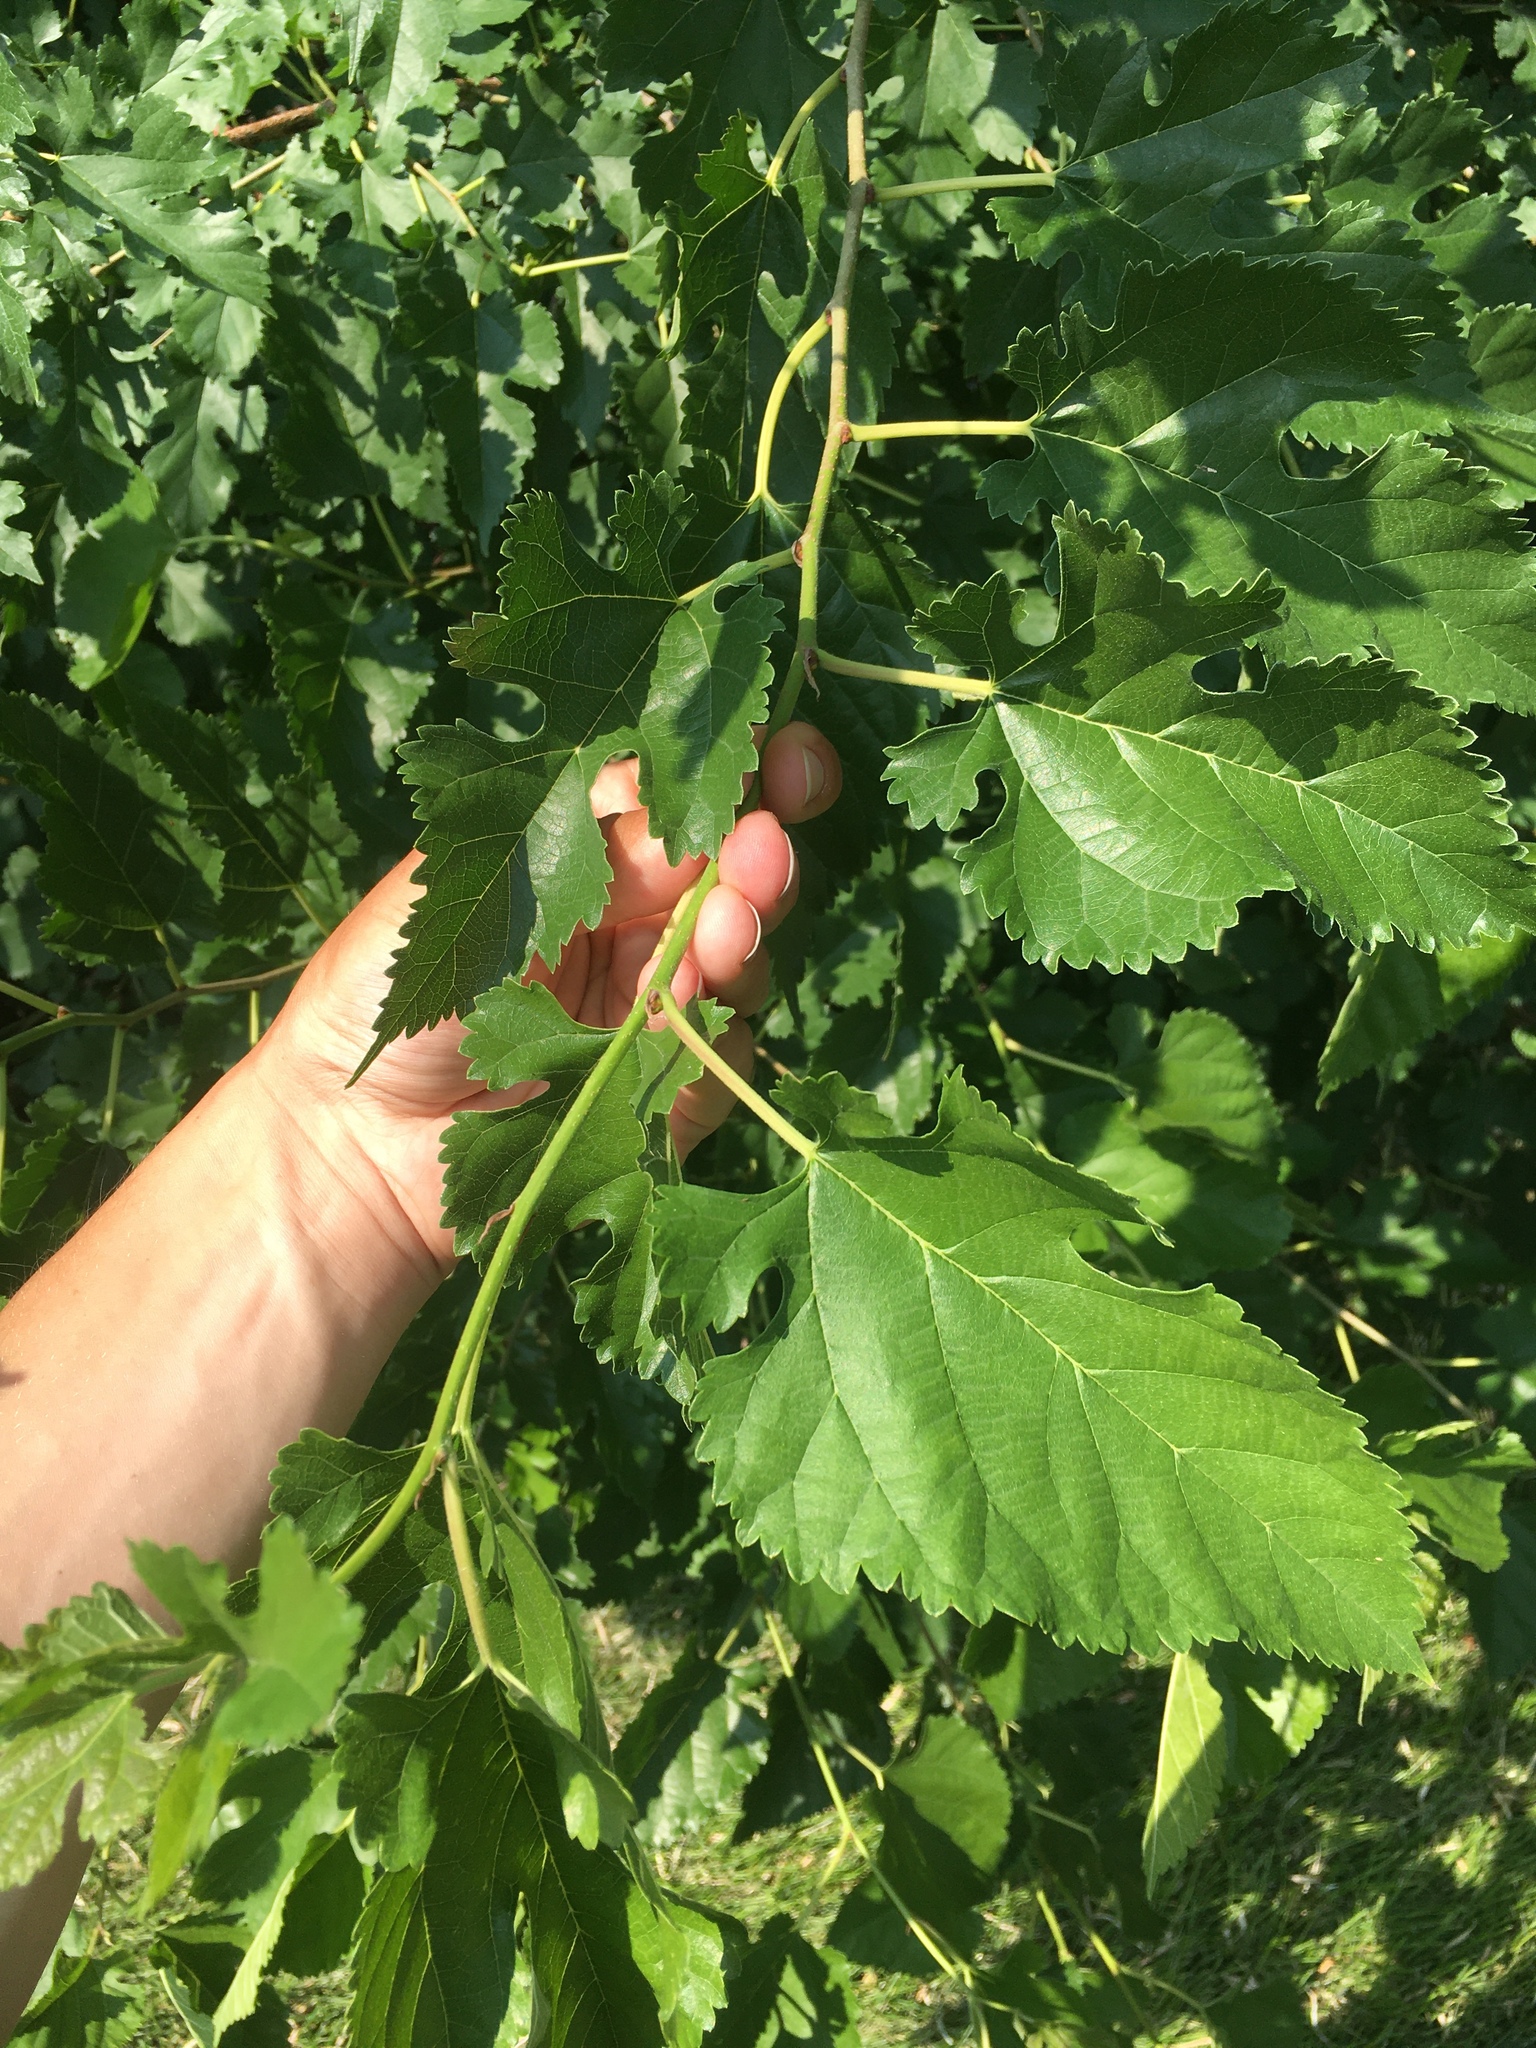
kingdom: Plantae
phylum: Tracheophyta
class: Magnoliopsida
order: Rosales
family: Moraceae
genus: Morus
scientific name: Morus alba
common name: White mulberry
